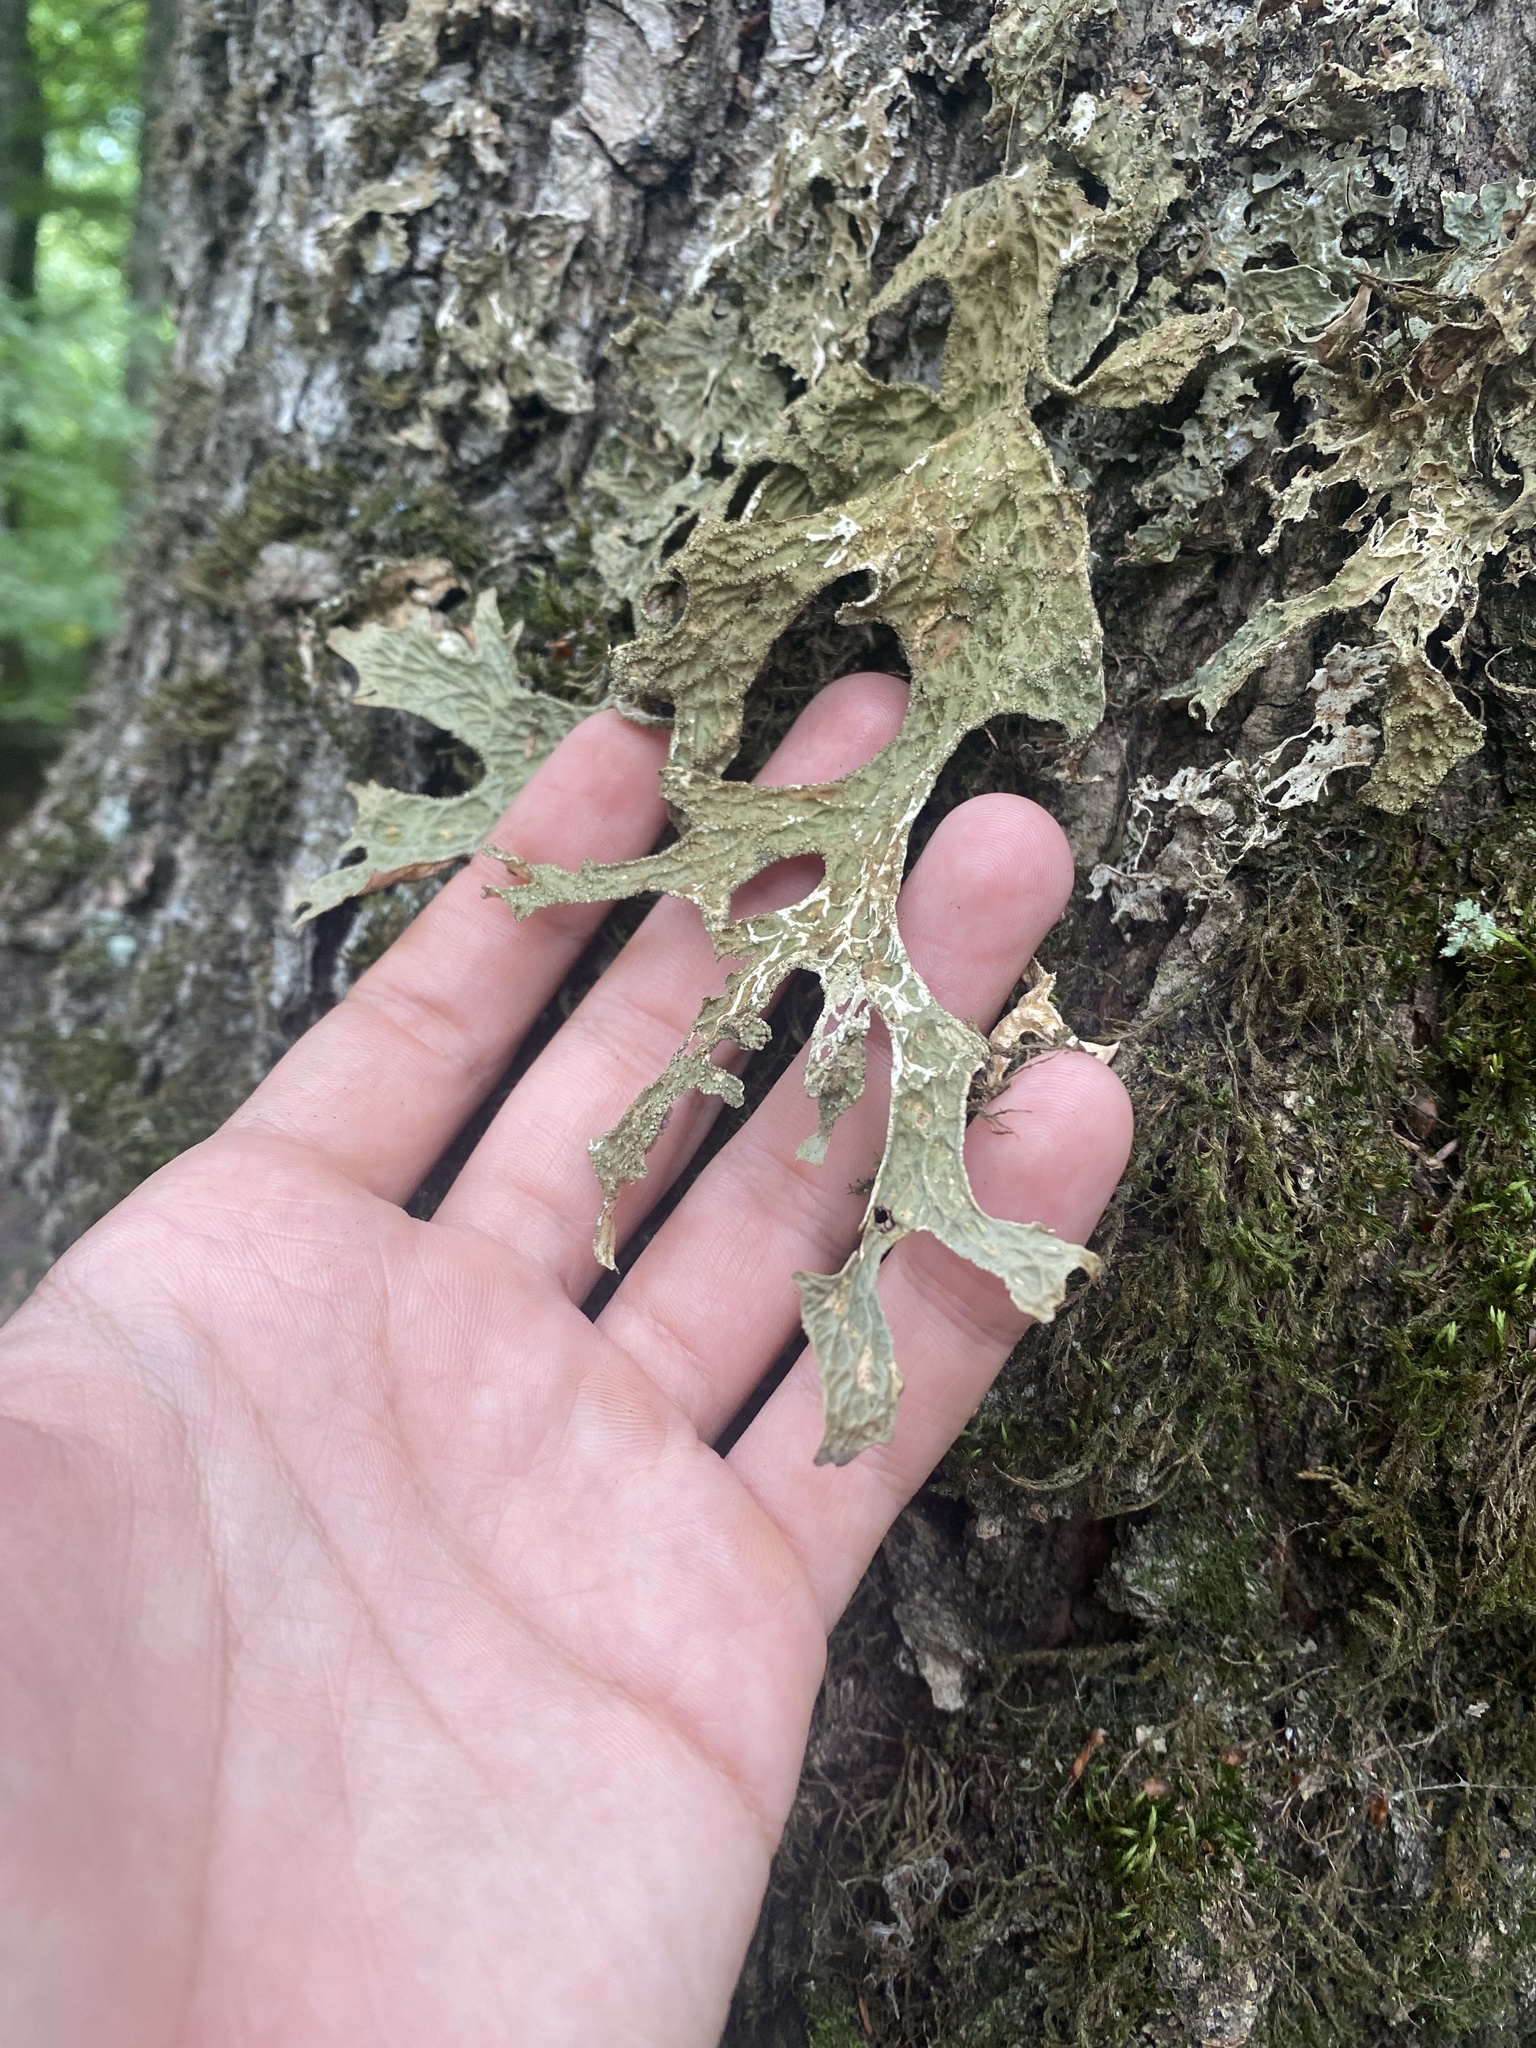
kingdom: Fungi
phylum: Ascomycota
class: Lecanoromycetes
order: Peltigerales
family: Lobariaceae
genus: Lobaria
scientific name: Lobaria pulmonaria
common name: Lungwort
